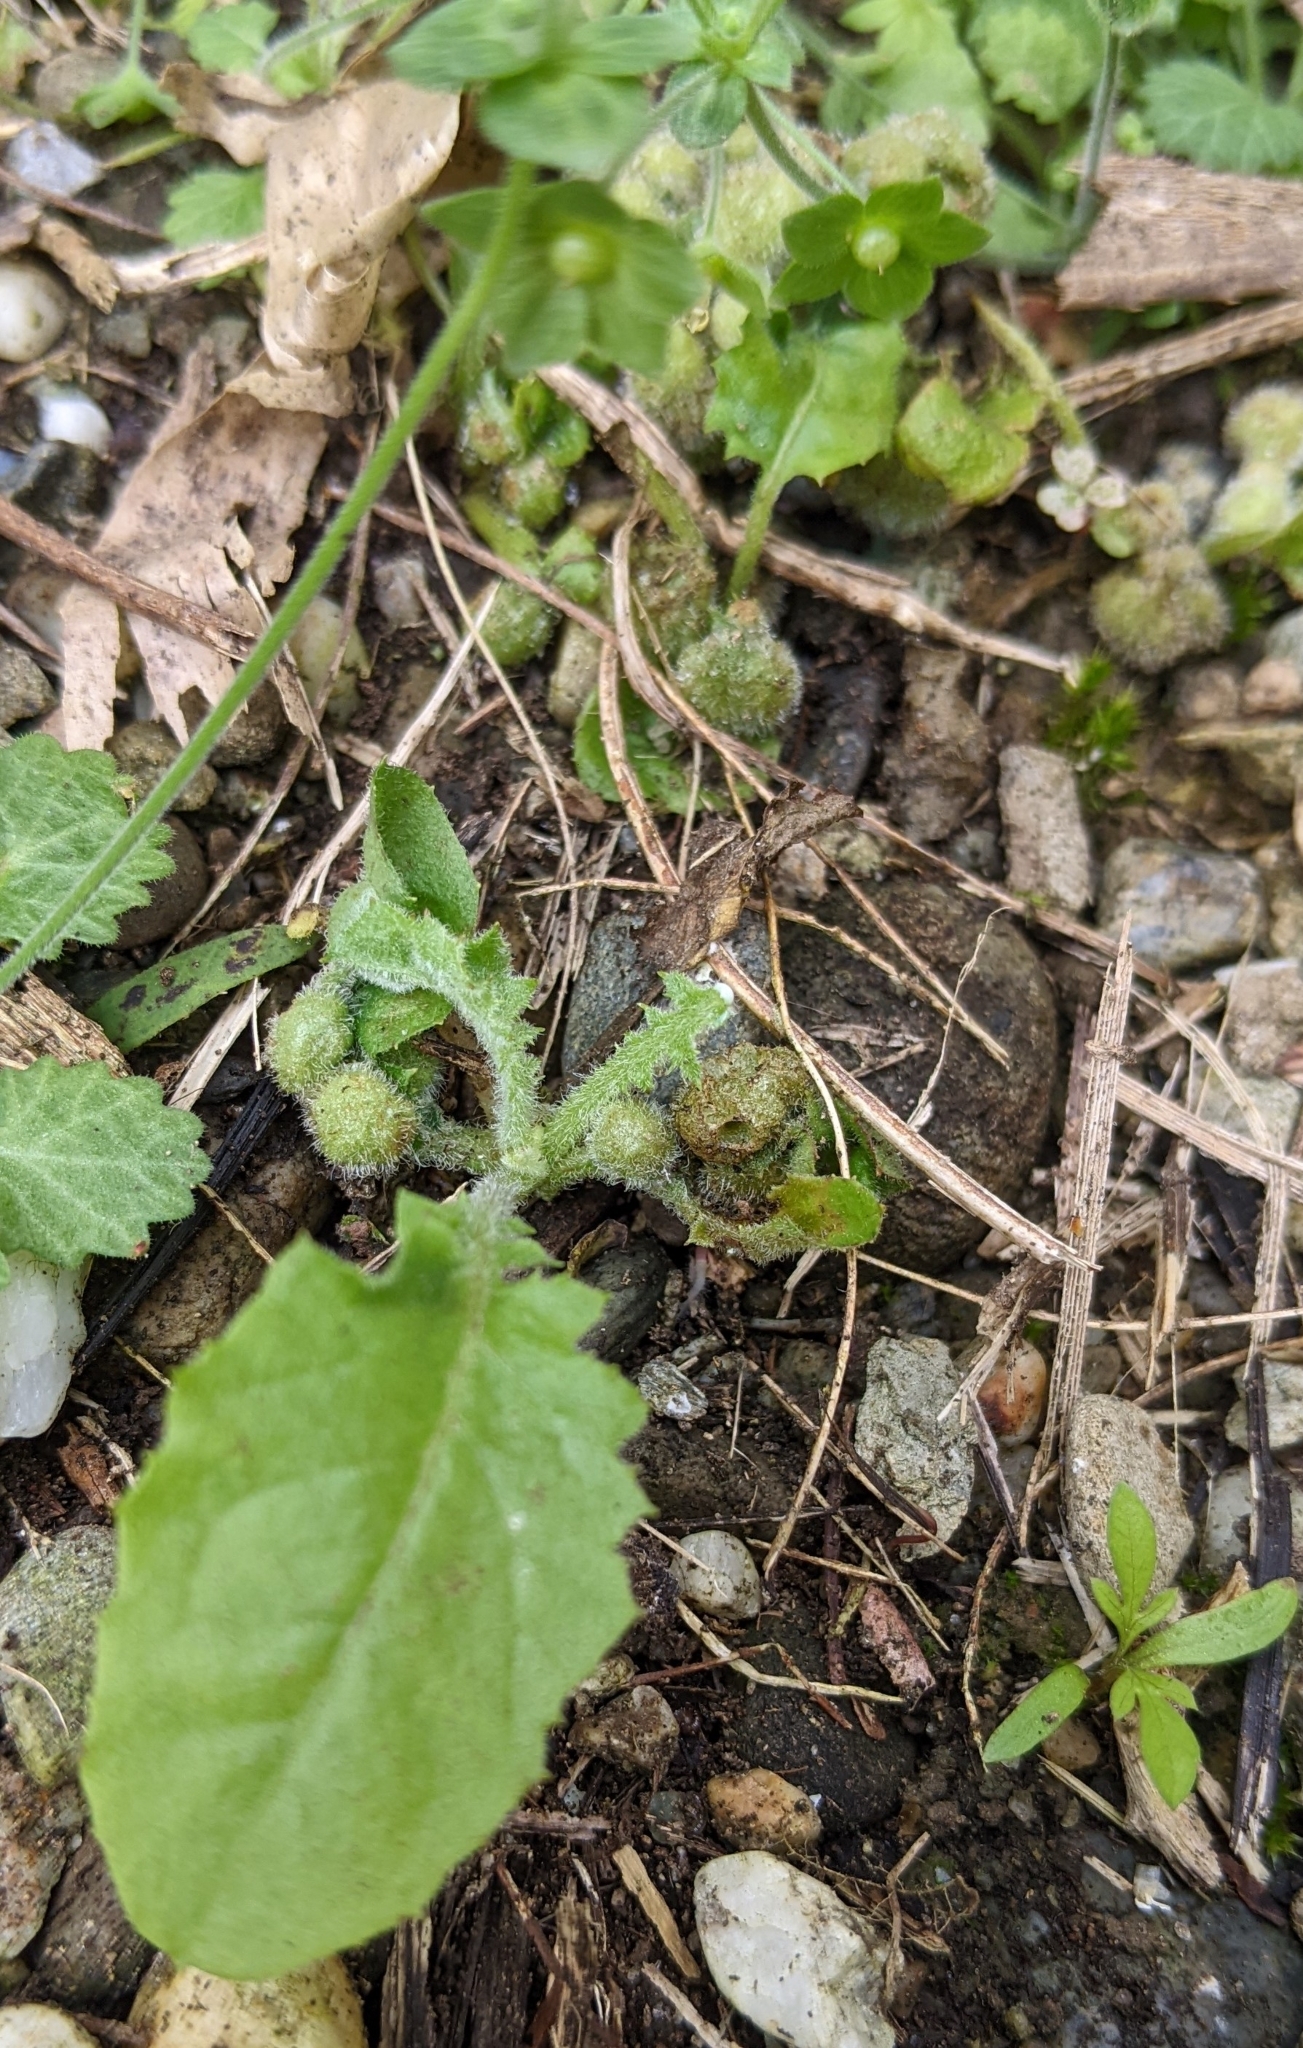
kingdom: Plantae
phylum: Tracheophyta
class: Magnoliopsida
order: Asterales
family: Asteraceae
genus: Youngia
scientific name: Youngia japonica
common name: Oriental false hawksbeard
